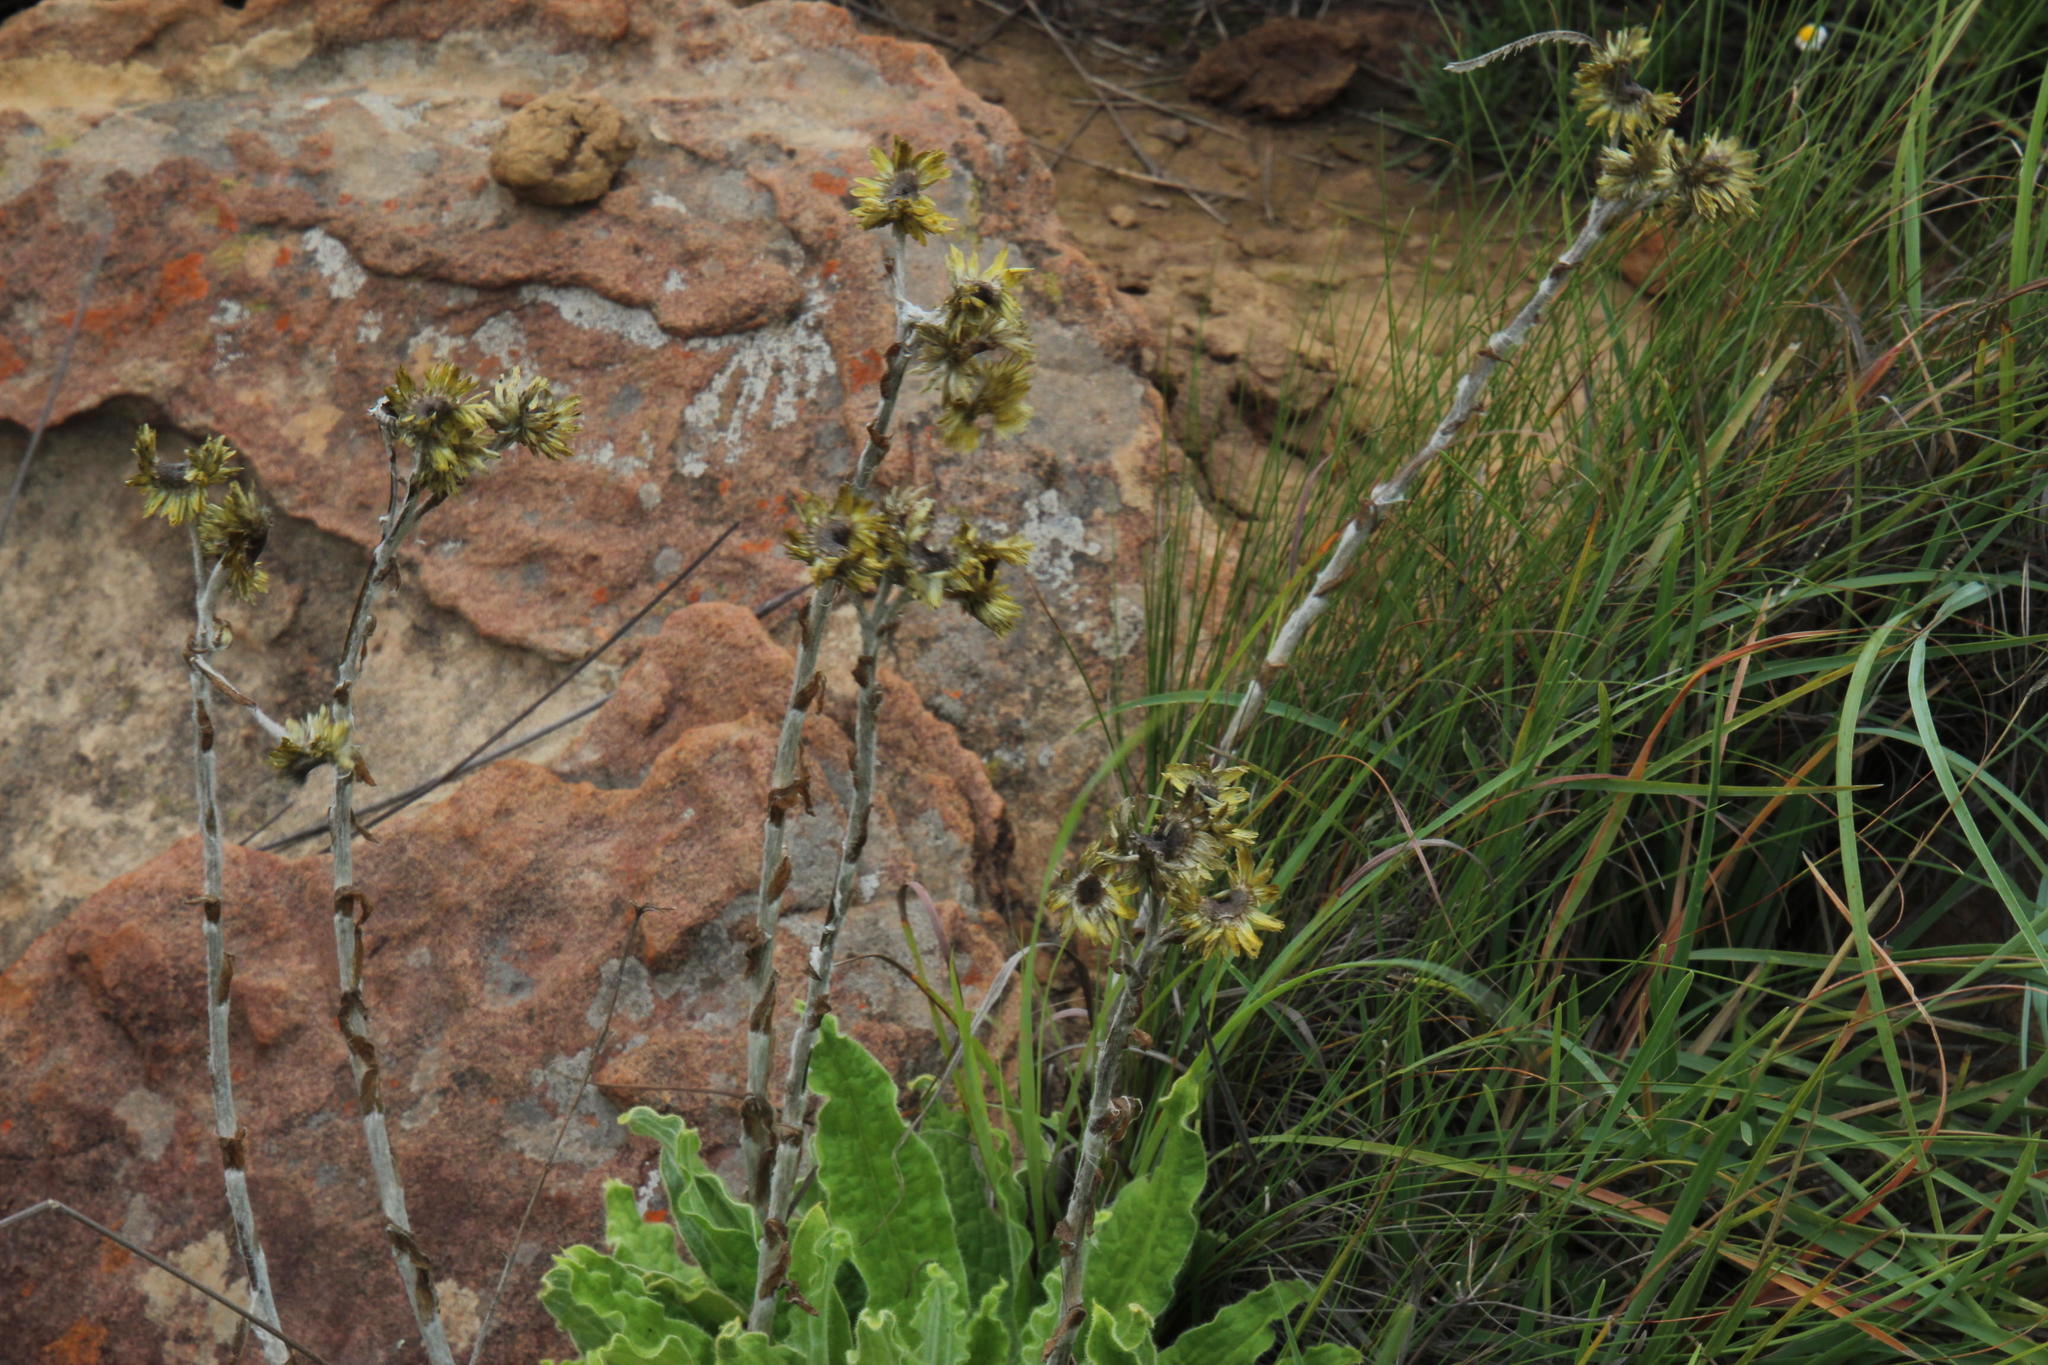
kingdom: Plantae
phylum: Tracheophyta
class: Magnoliopsida
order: Asterales
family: Asteraceae
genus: Helichrysum
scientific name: Helichrysum tenax
